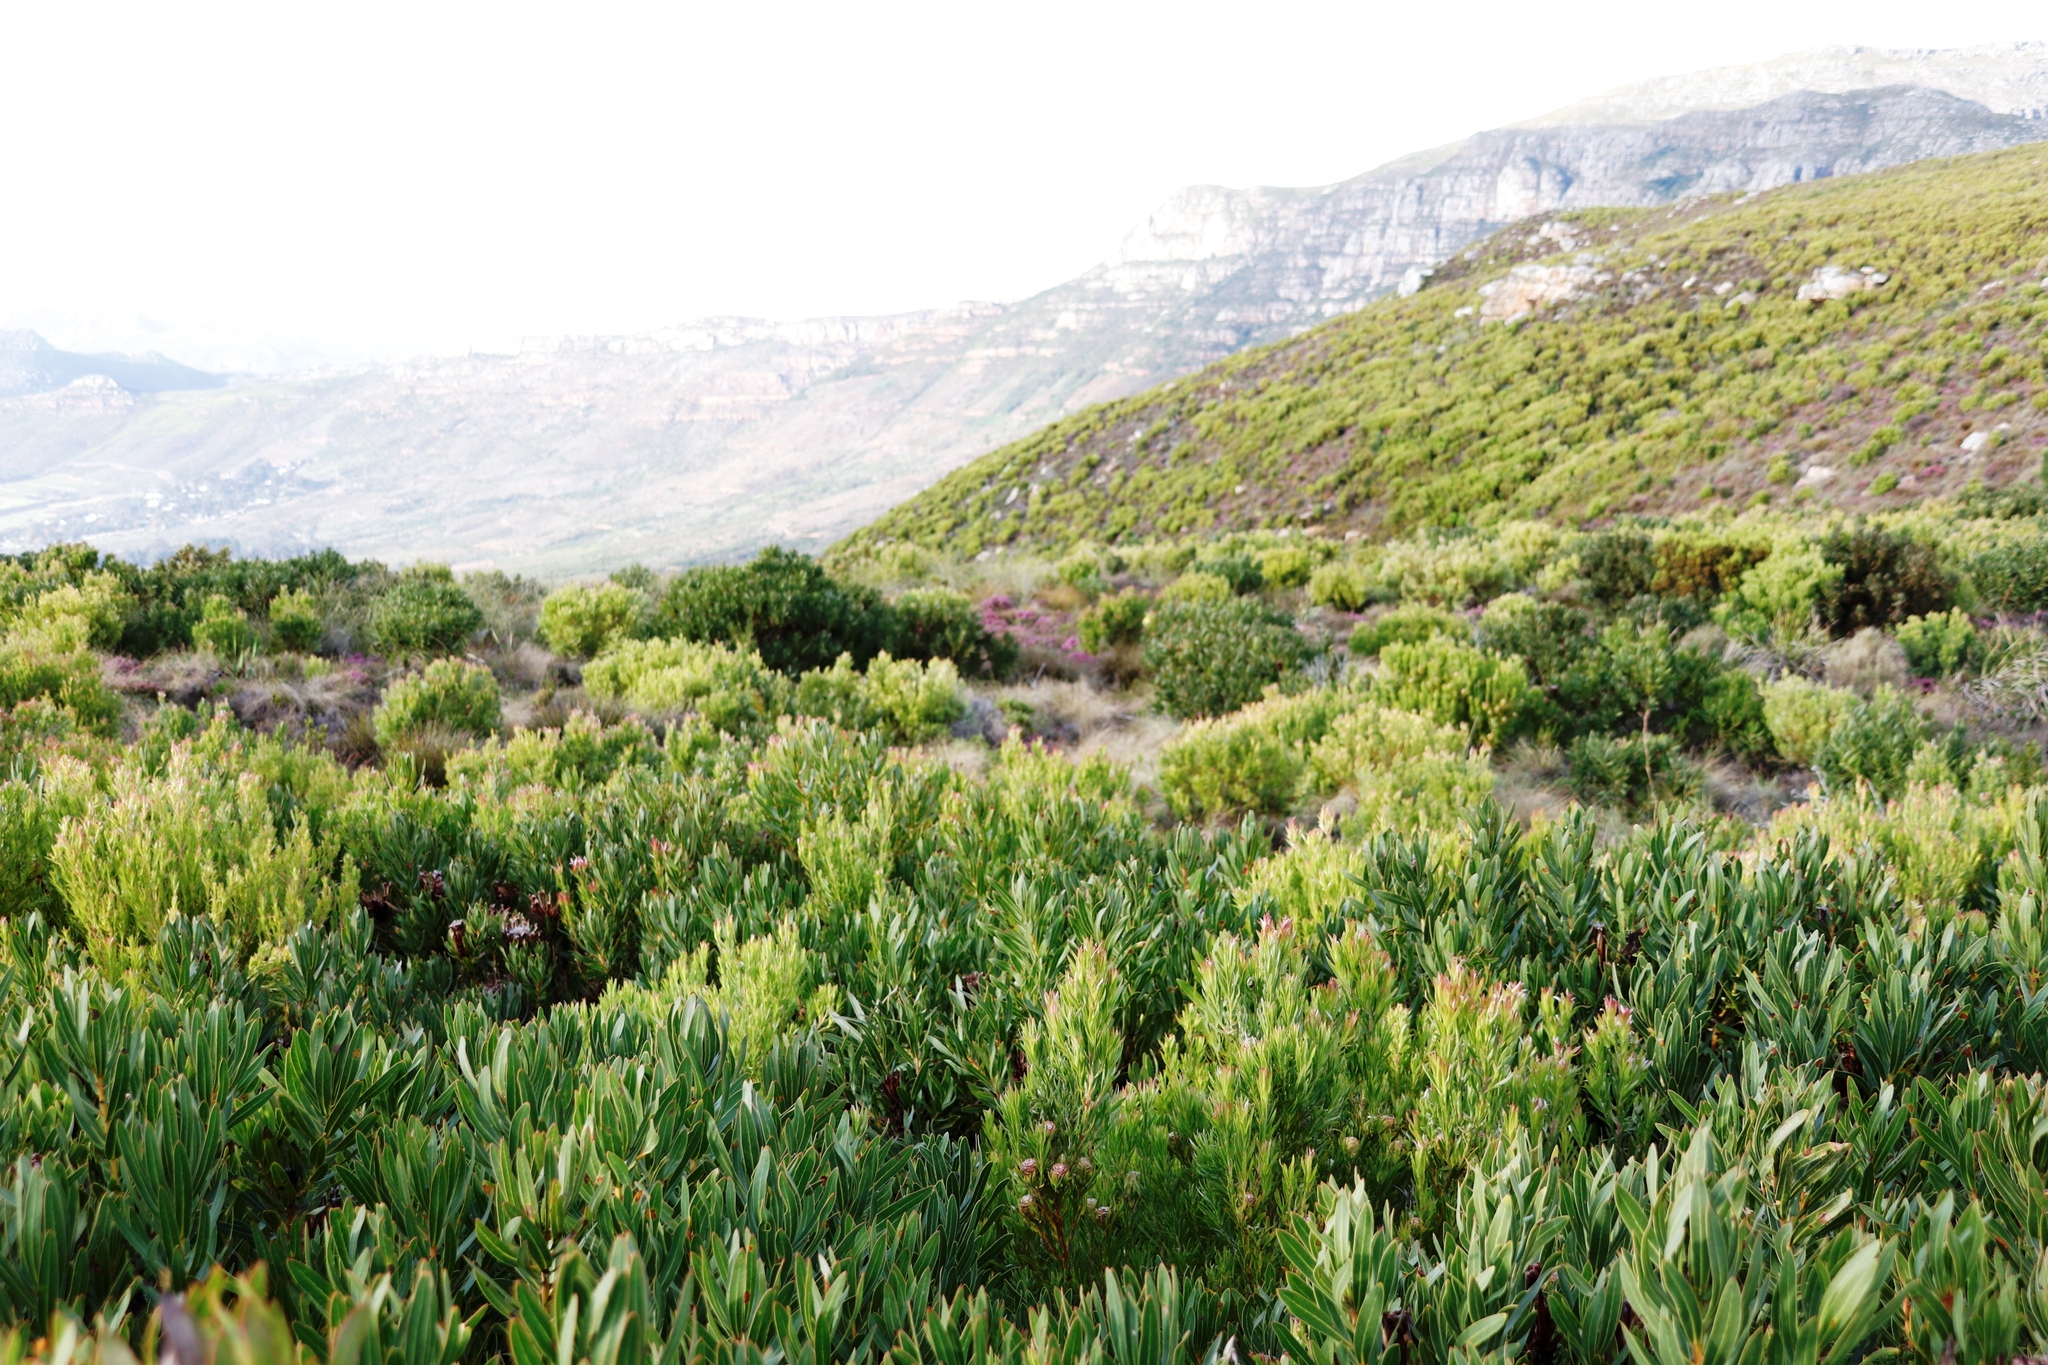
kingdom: Plantae
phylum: Tracheophyta
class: Magnoliopsida
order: Proteales
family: Proteaceae
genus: Leucadendron
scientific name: Leucadendron xanthoconus
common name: Sickle-leaf conebush
